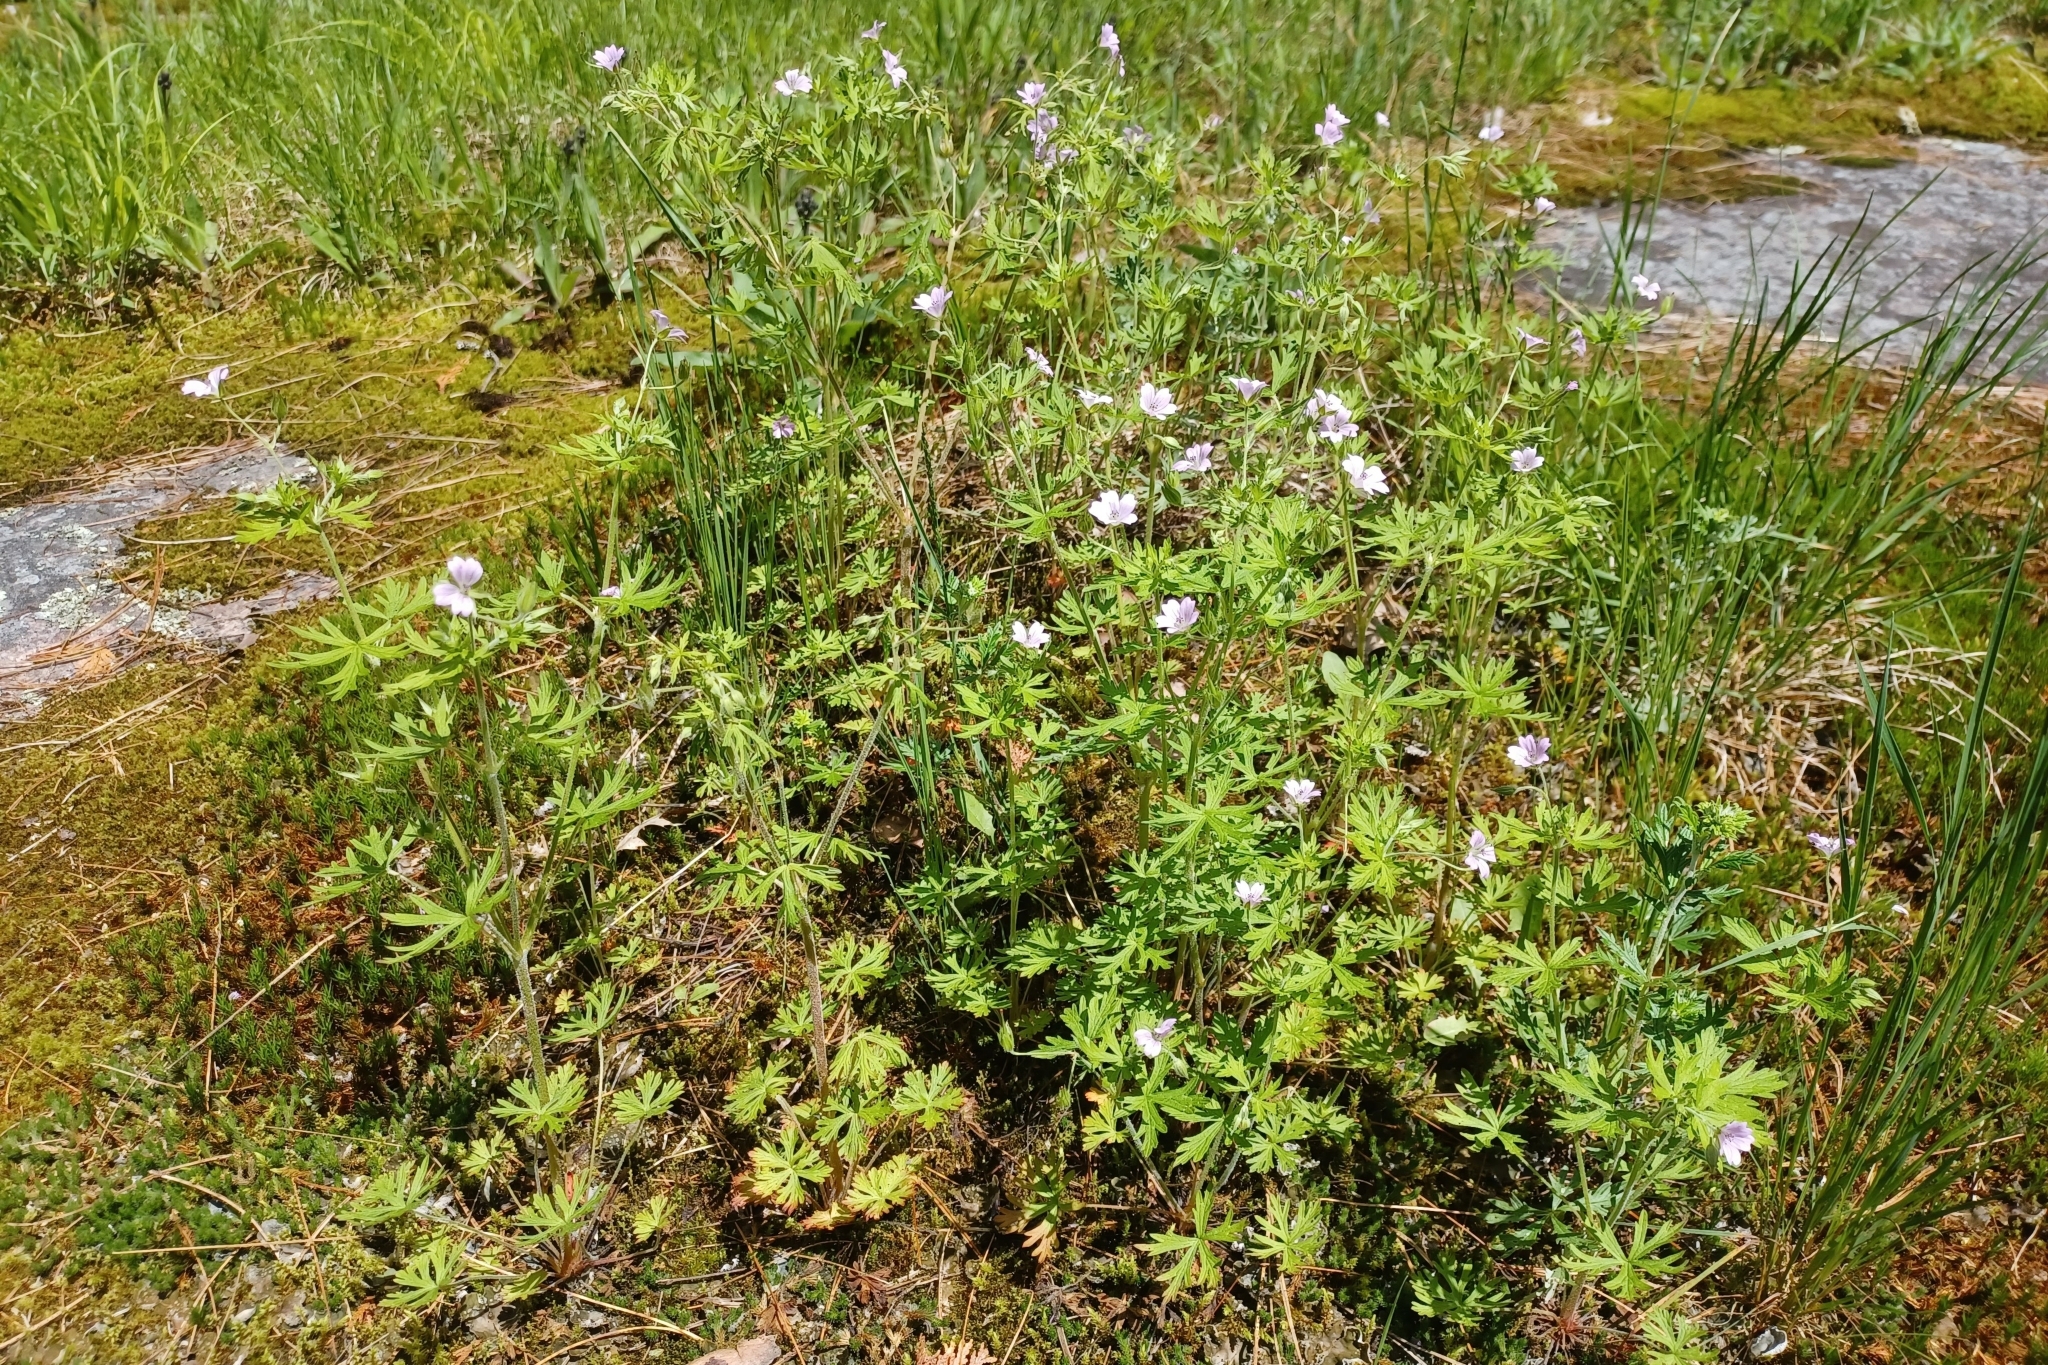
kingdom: Plantae
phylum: Tracheophyta
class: Magnoliopsida
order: Geraniales
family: Geraniaceae
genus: Geranium
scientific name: Geranium bicknellii
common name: Bicknell's cranesbill
